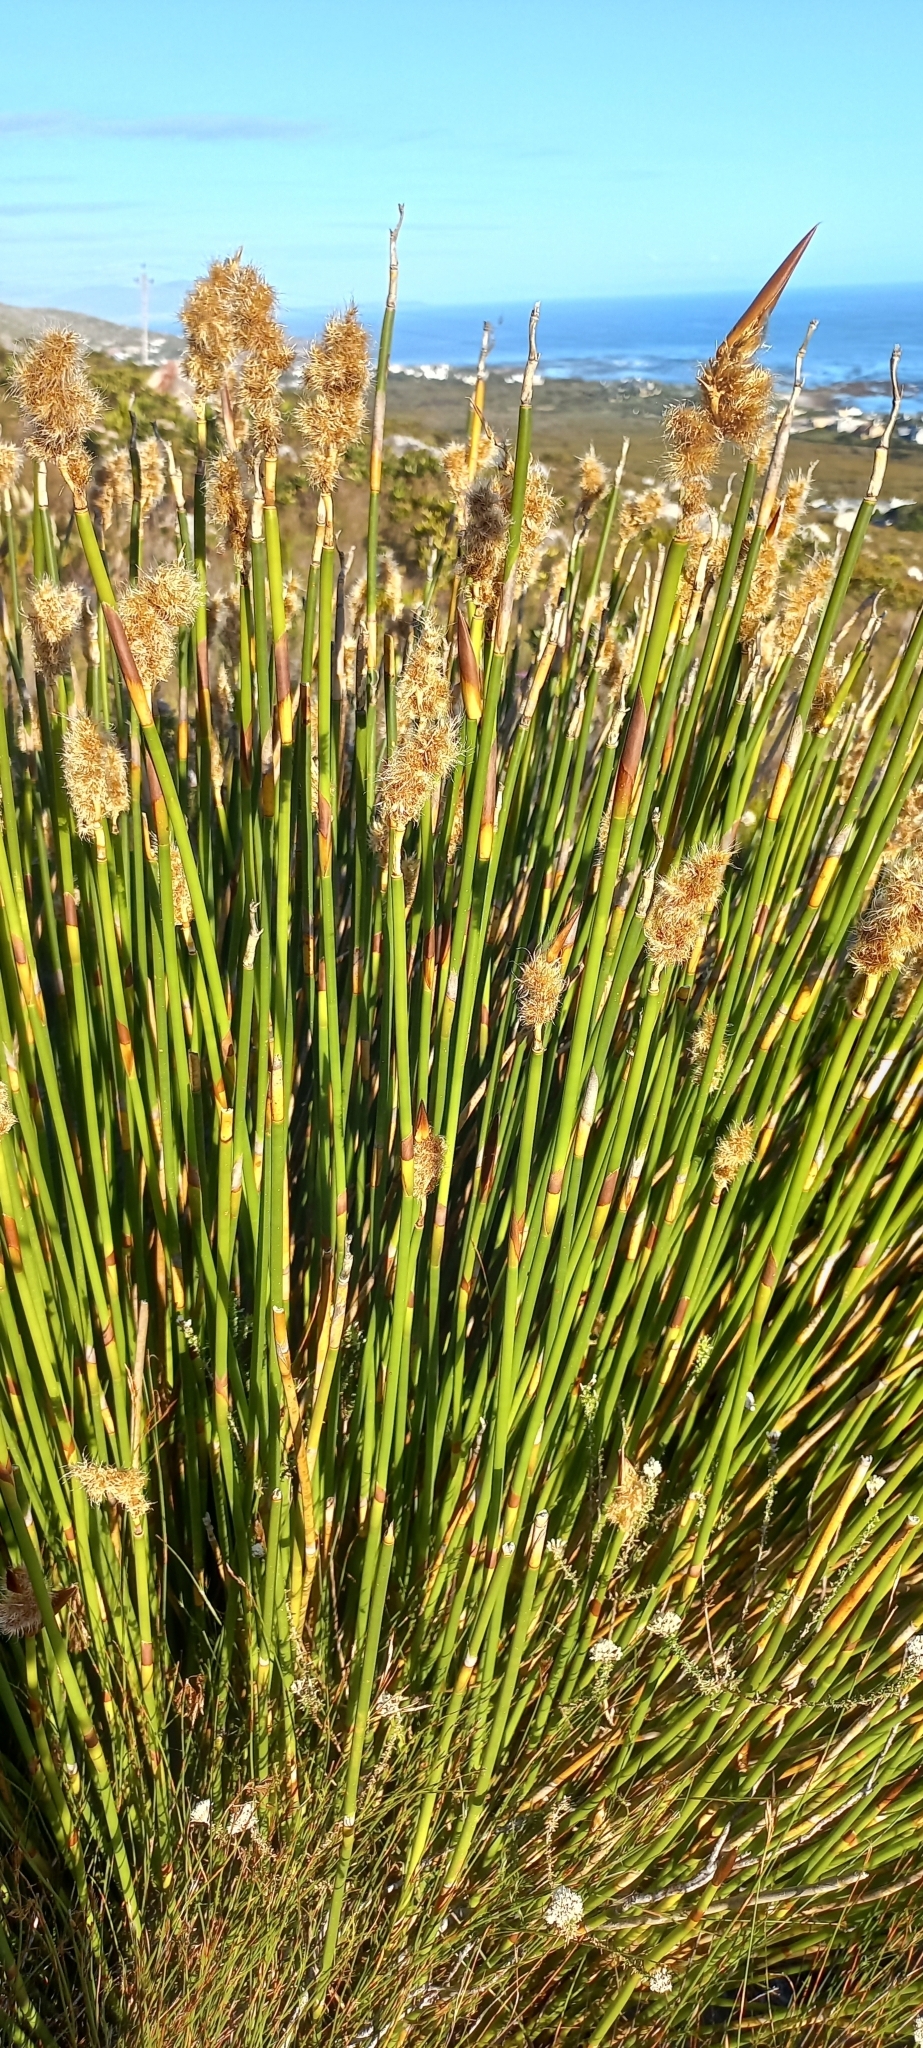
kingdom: Plantae
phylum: Tracheophyta
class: Liliopsida
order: Poales
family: Restionaceae
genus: Ceratocaryum
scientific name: Ceratocaryum caespitosum
